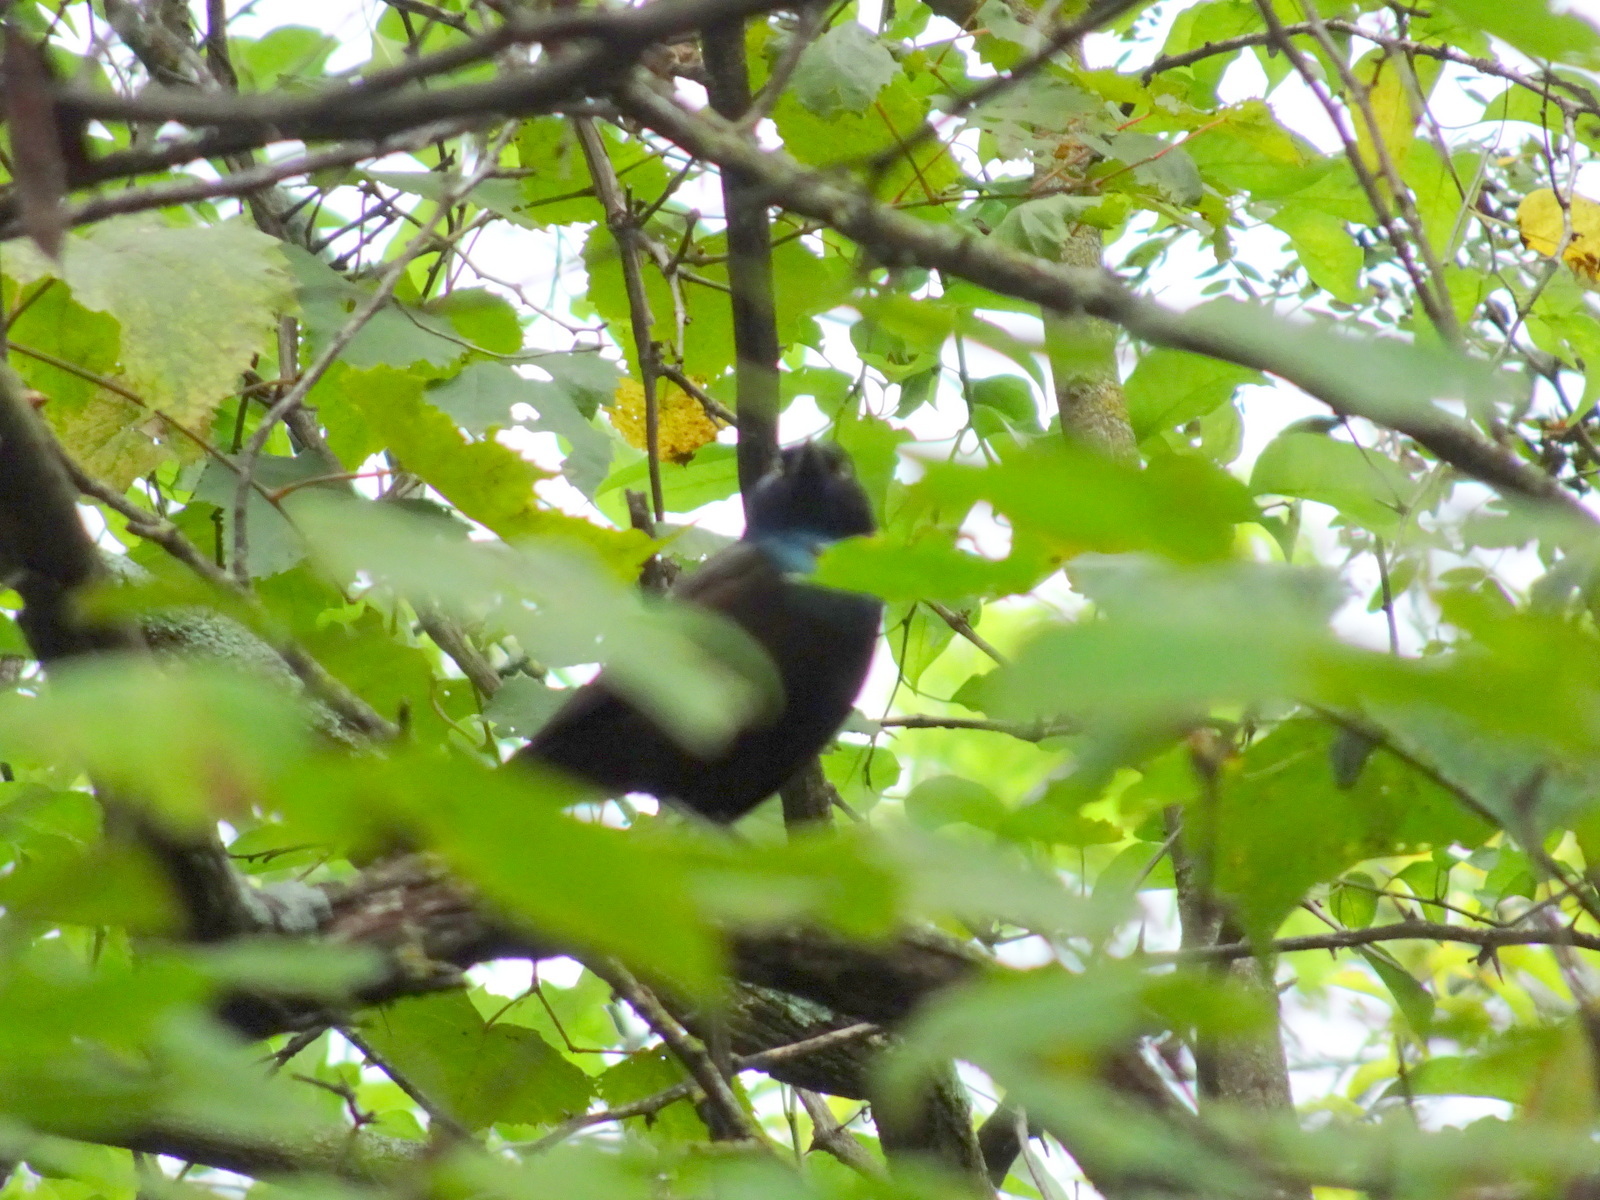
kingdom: Animalia
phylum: Chordata
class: Aves
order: Passeriformes
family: Icteridae
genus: Quiscalus
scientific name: Quiscalus quiscula
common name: Common grackle
